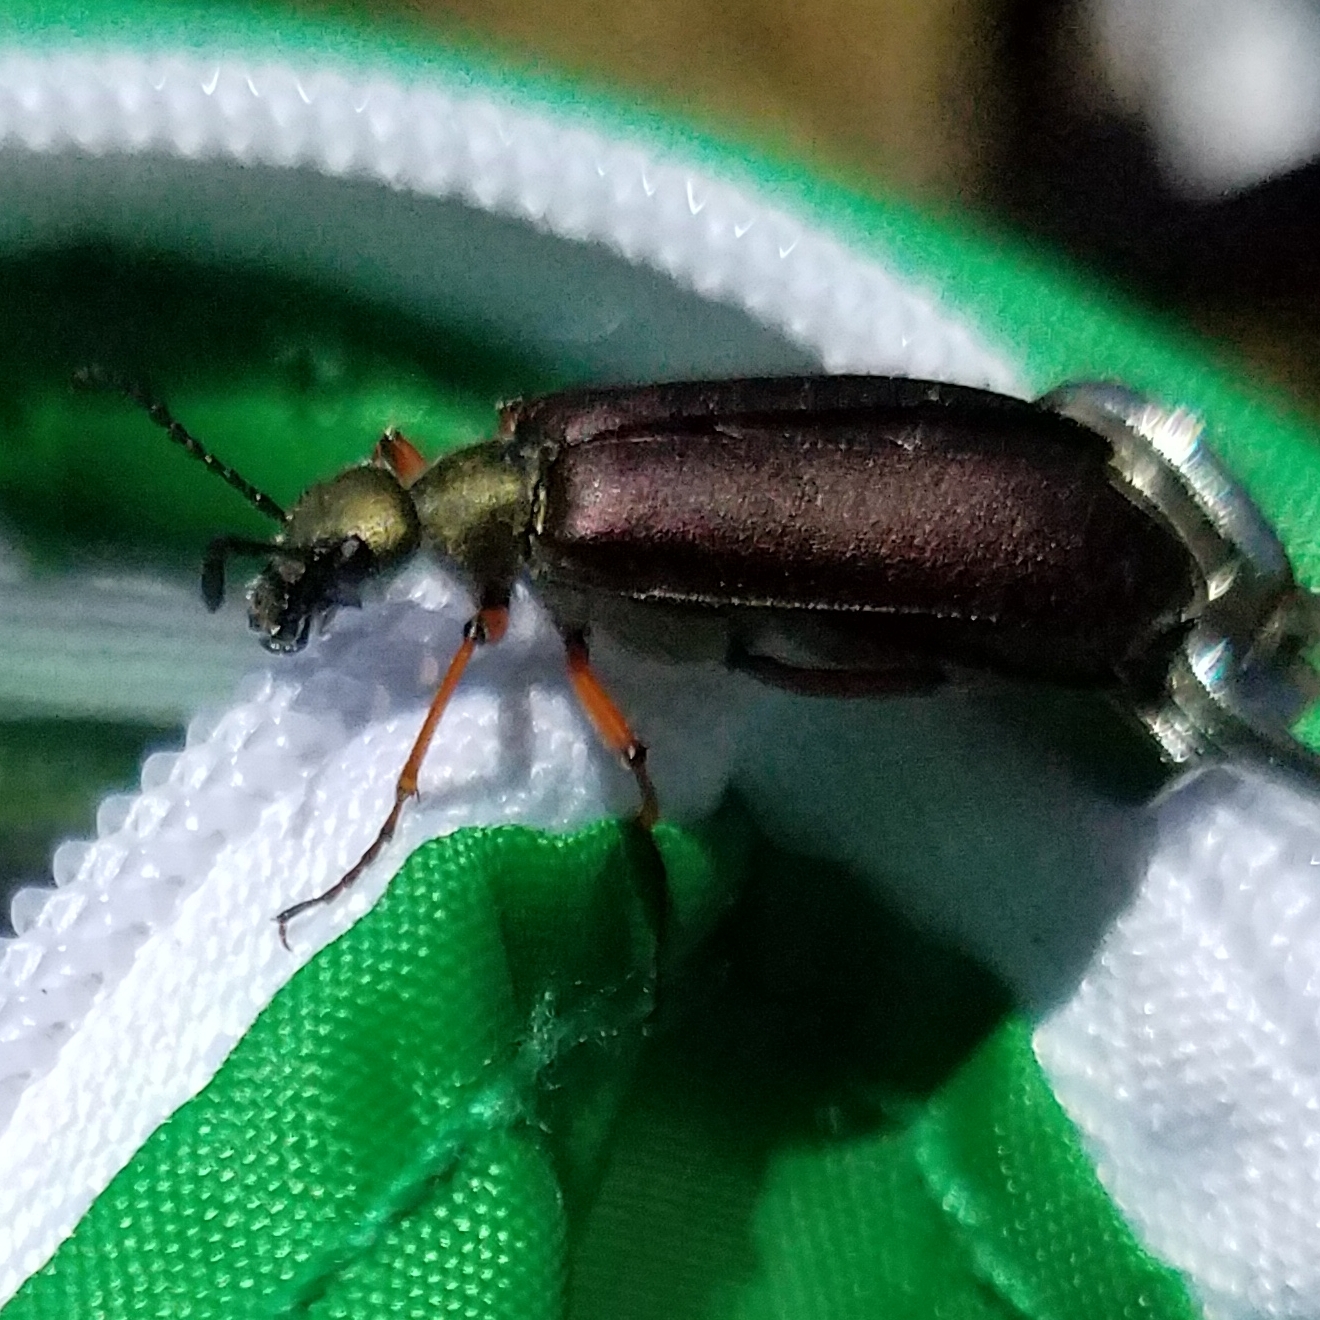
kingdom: Animalia
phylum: Arthropoda
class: Insecta
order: Coleoptera
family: Meloidae
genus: Lytta
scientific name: Lytta aenea
